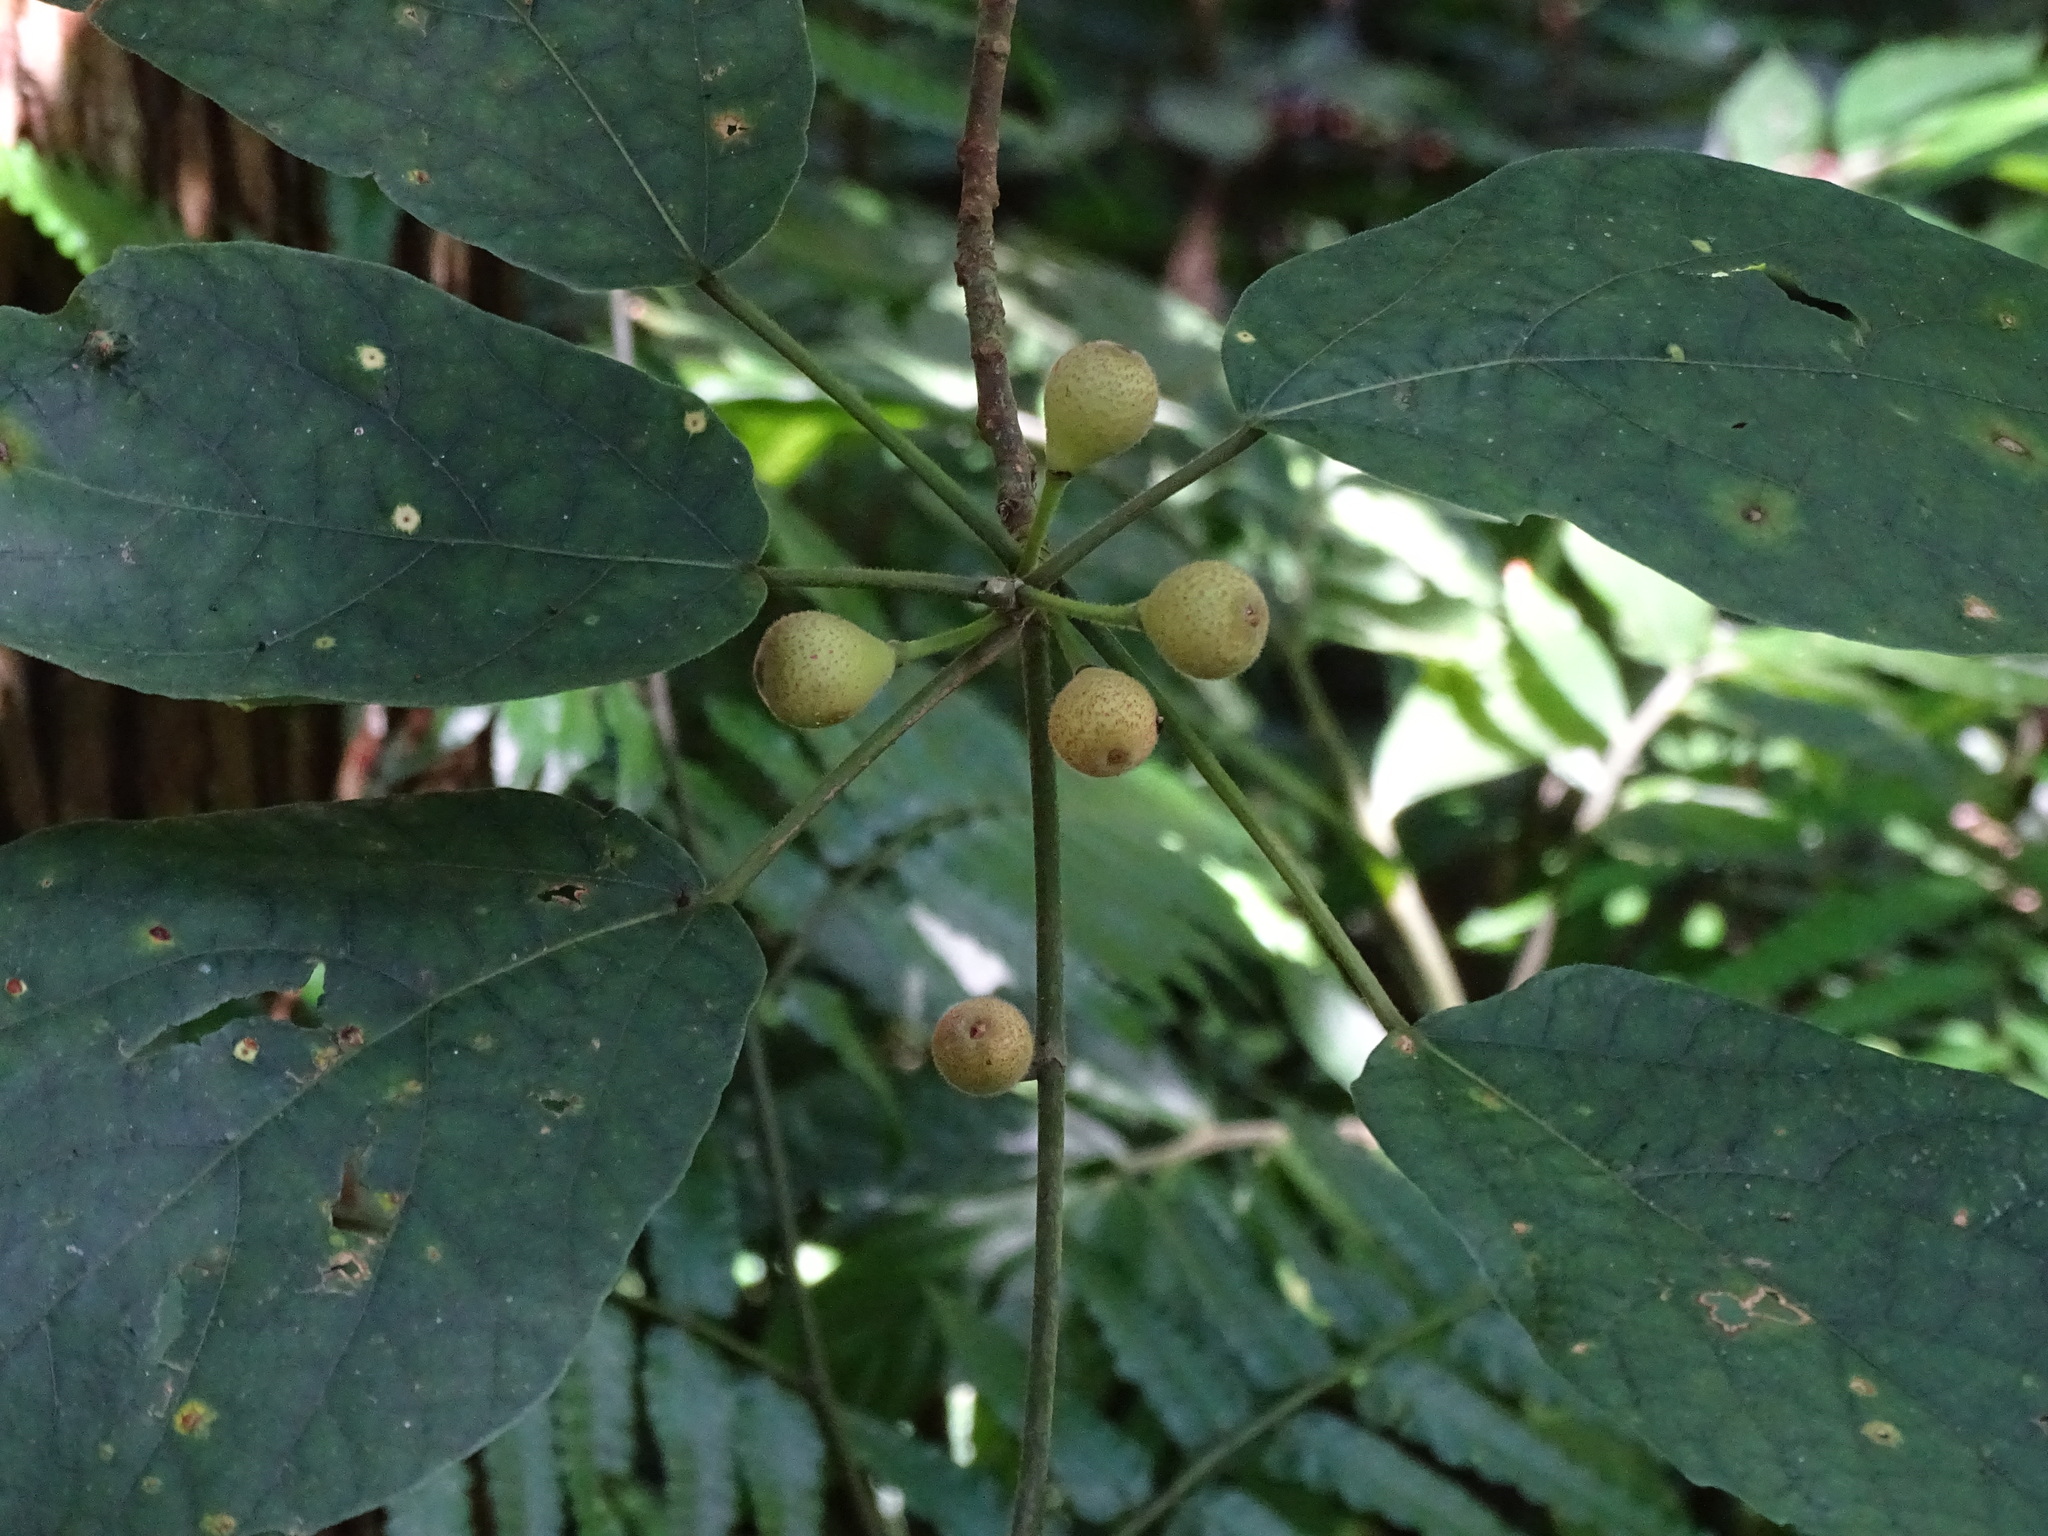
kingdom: Plantae
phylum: Tracheophyta
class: Magnoliopsida
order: Rosales
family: Moraceae
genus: Ficus
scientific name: Ficus erecta
